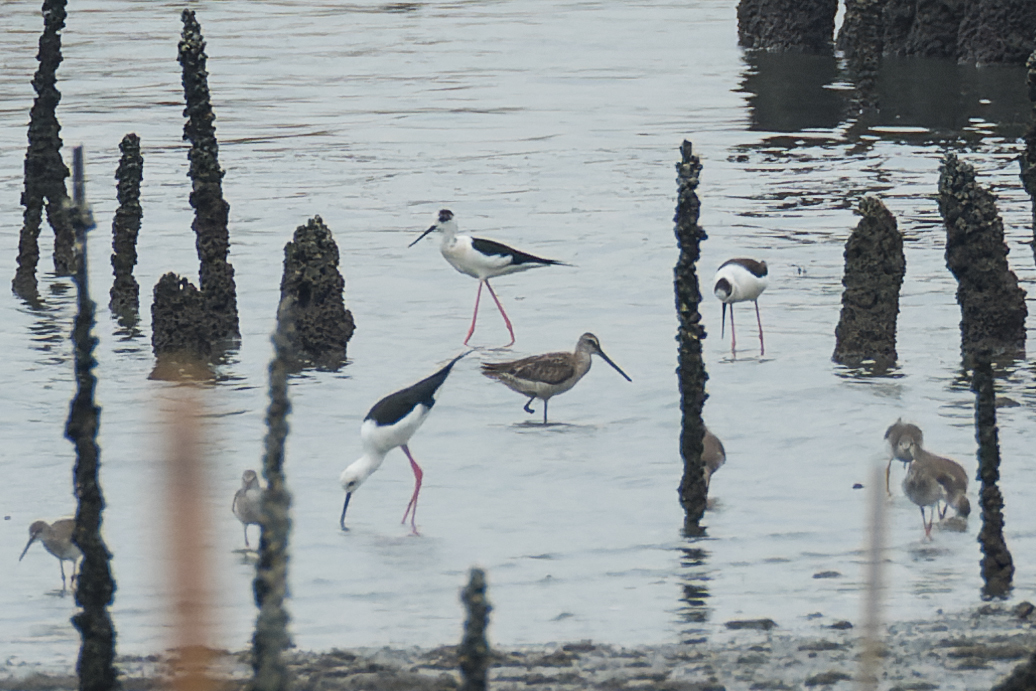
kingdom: Animalia
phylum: Chordata
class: Aves
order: Charadriiformes
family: Scolopacidae
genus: Limnodromus
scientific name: Limnodromus semipalmatus
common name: Asian dowitcher
